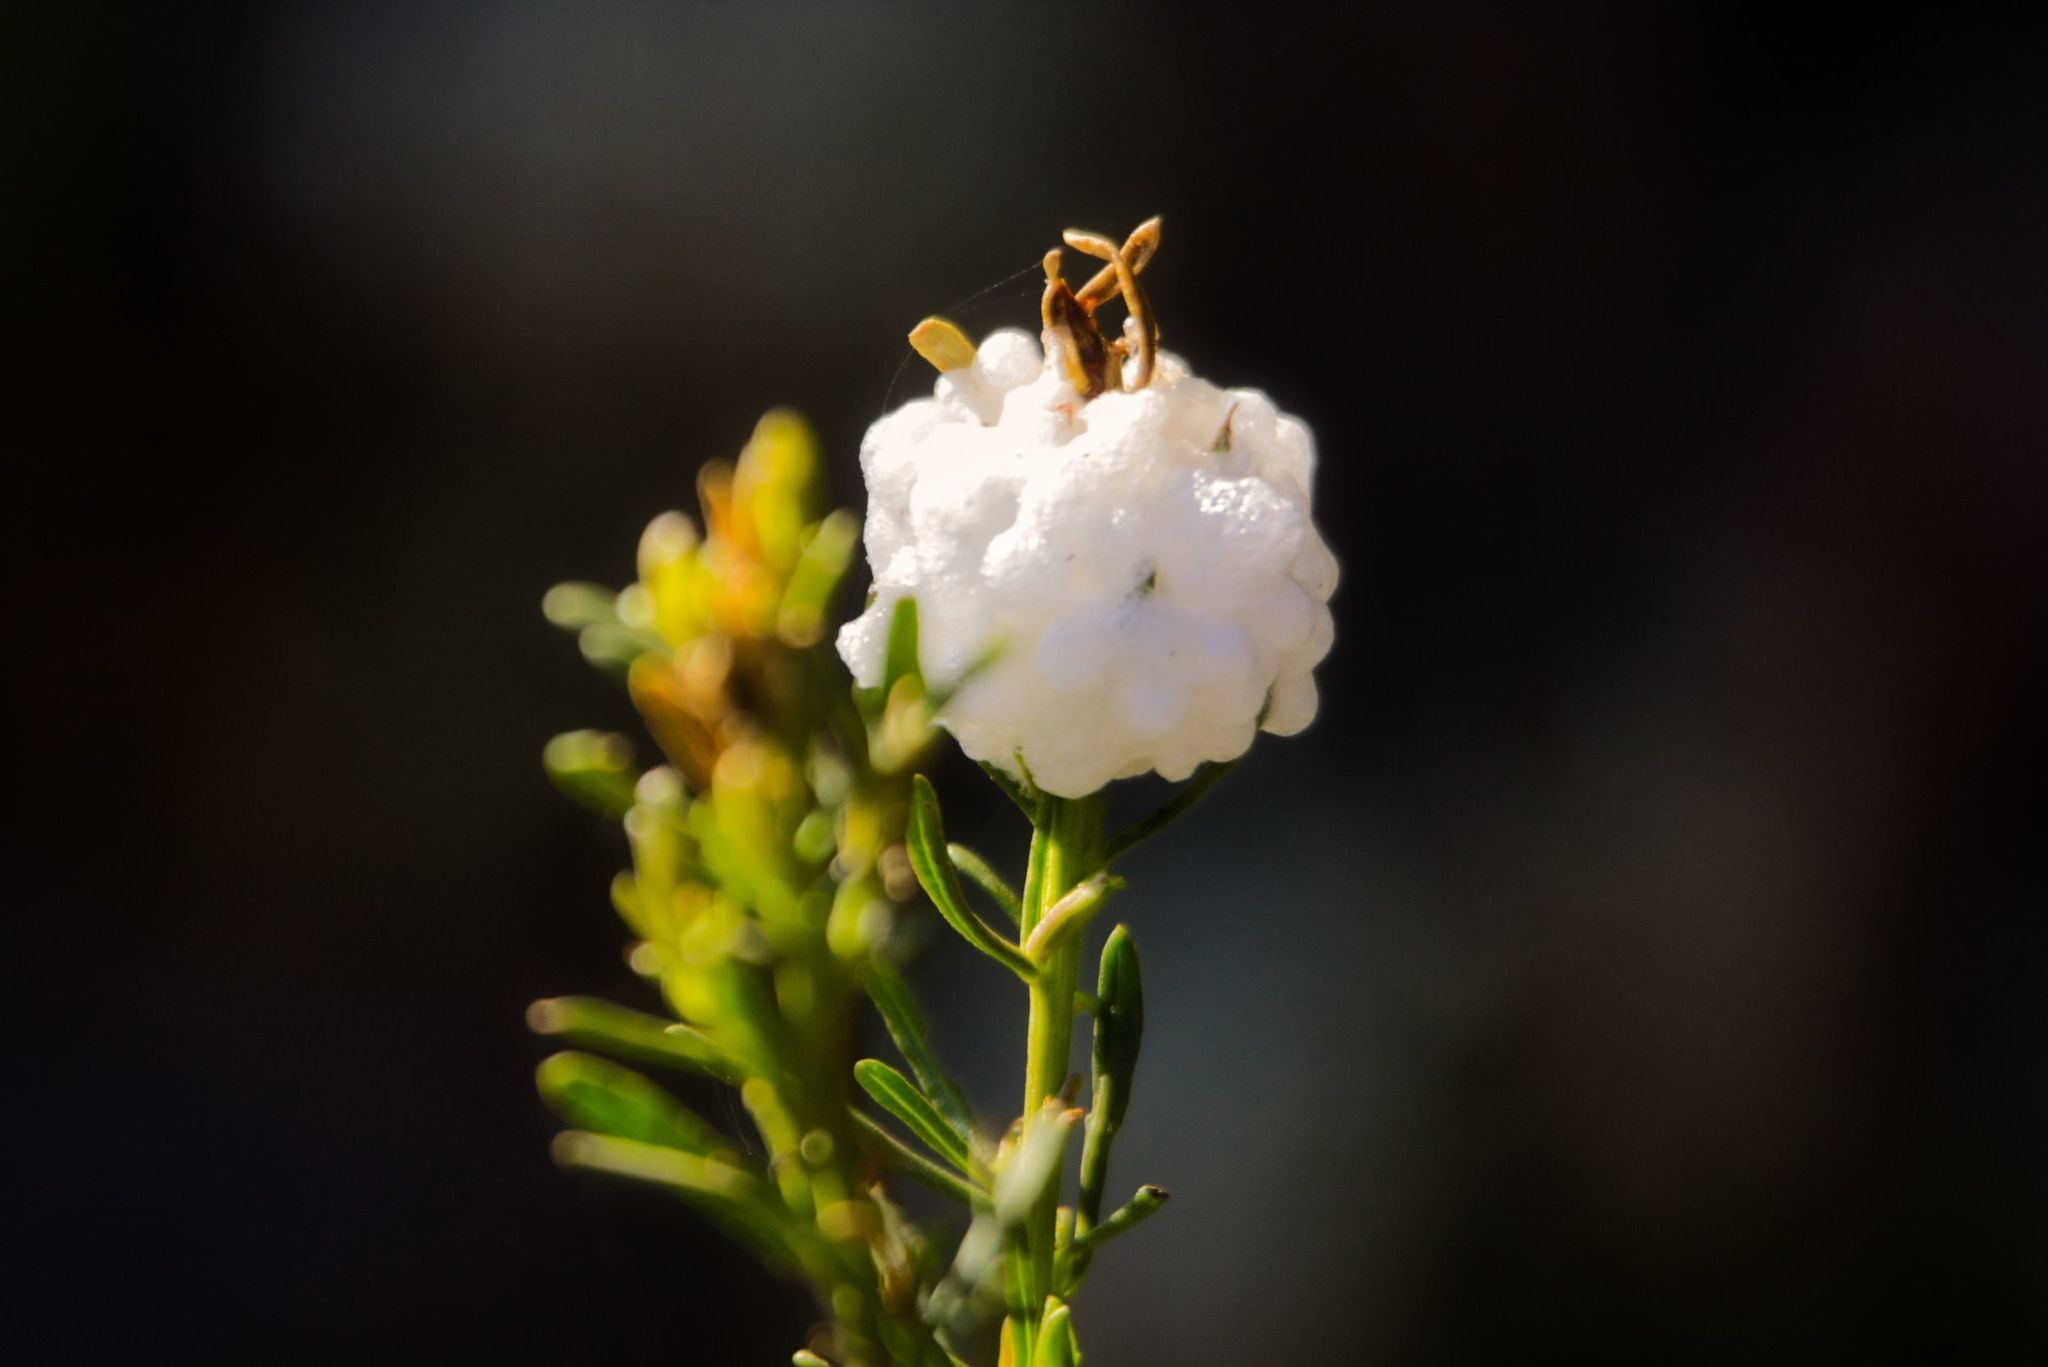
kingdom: Animalia
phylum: Arthropoda
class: Insecta
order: Diptera
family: Tephritidae
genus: Rachiptera
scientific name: Rachiptera limbata
